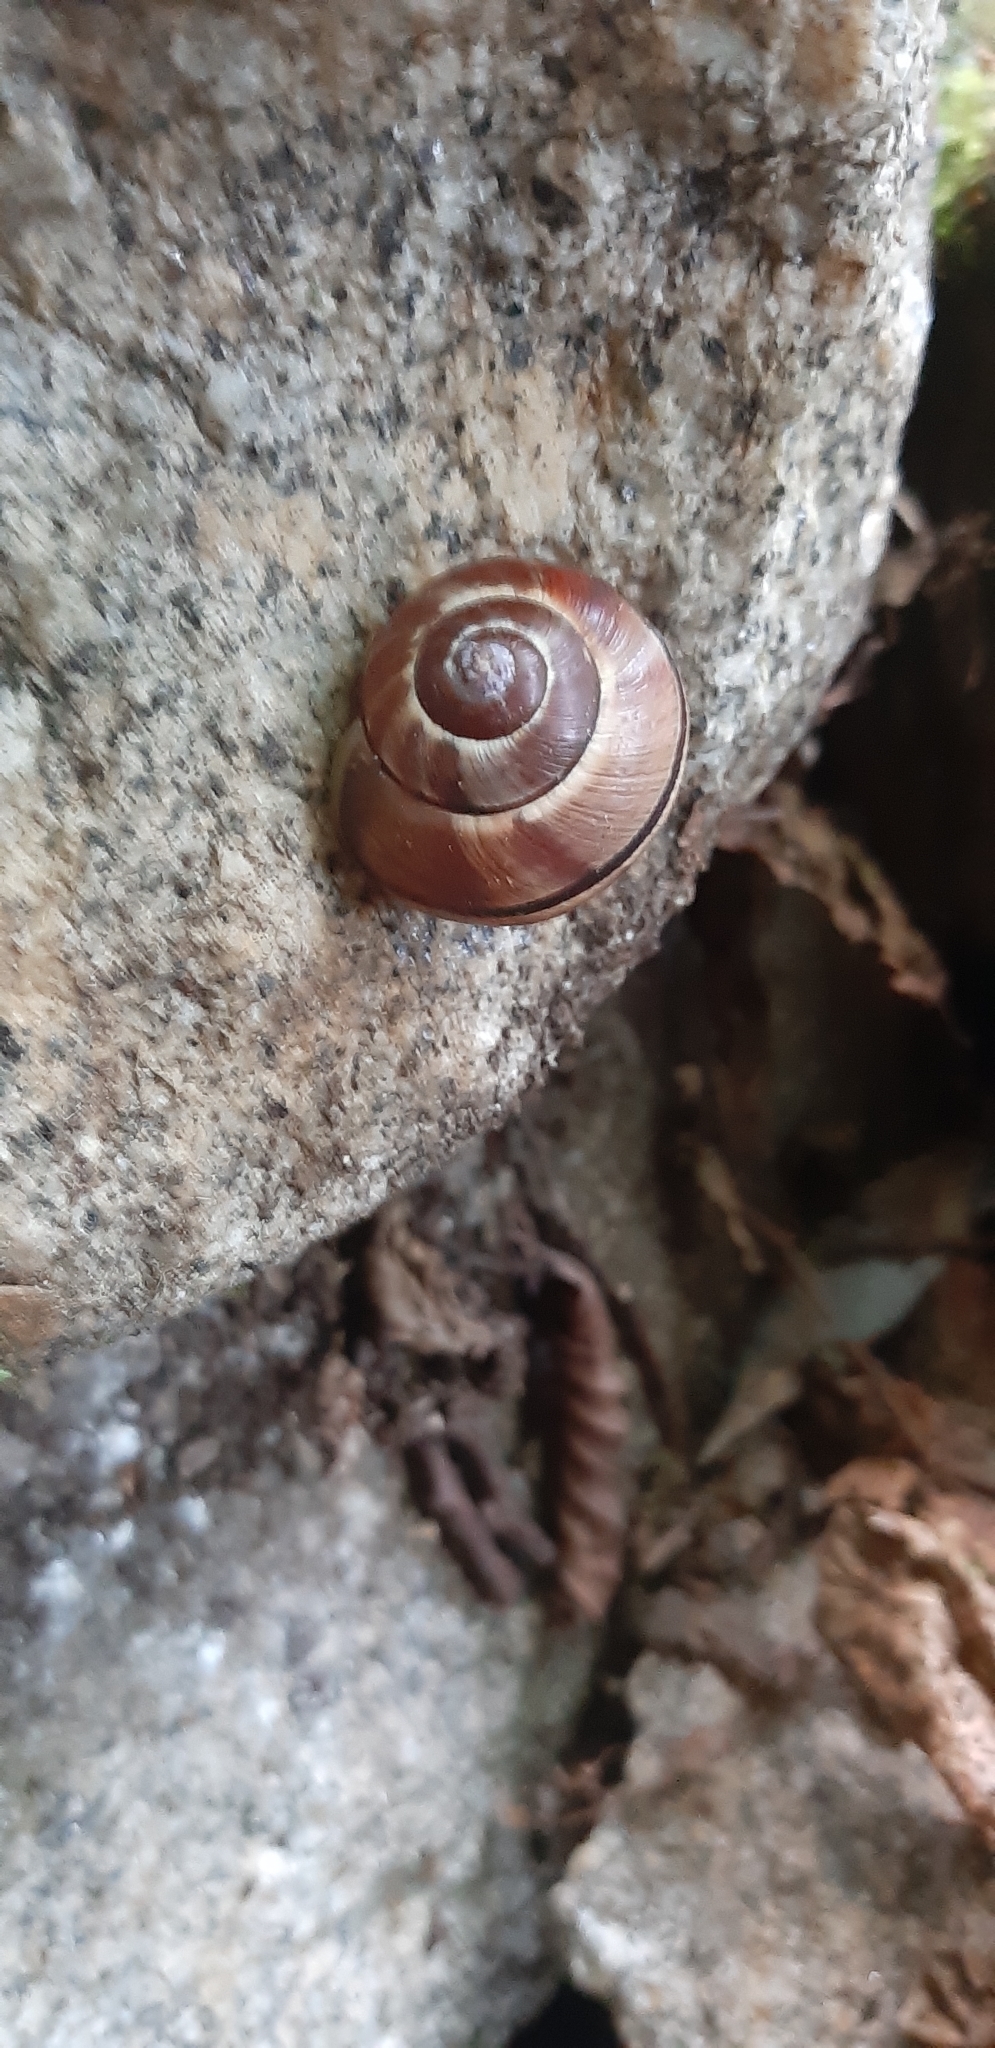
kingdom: Animalia
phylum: Mollusca
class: Gastropoda
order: Stylommatophora
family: Helicidae
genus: Cepaea
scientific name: Cepaea
